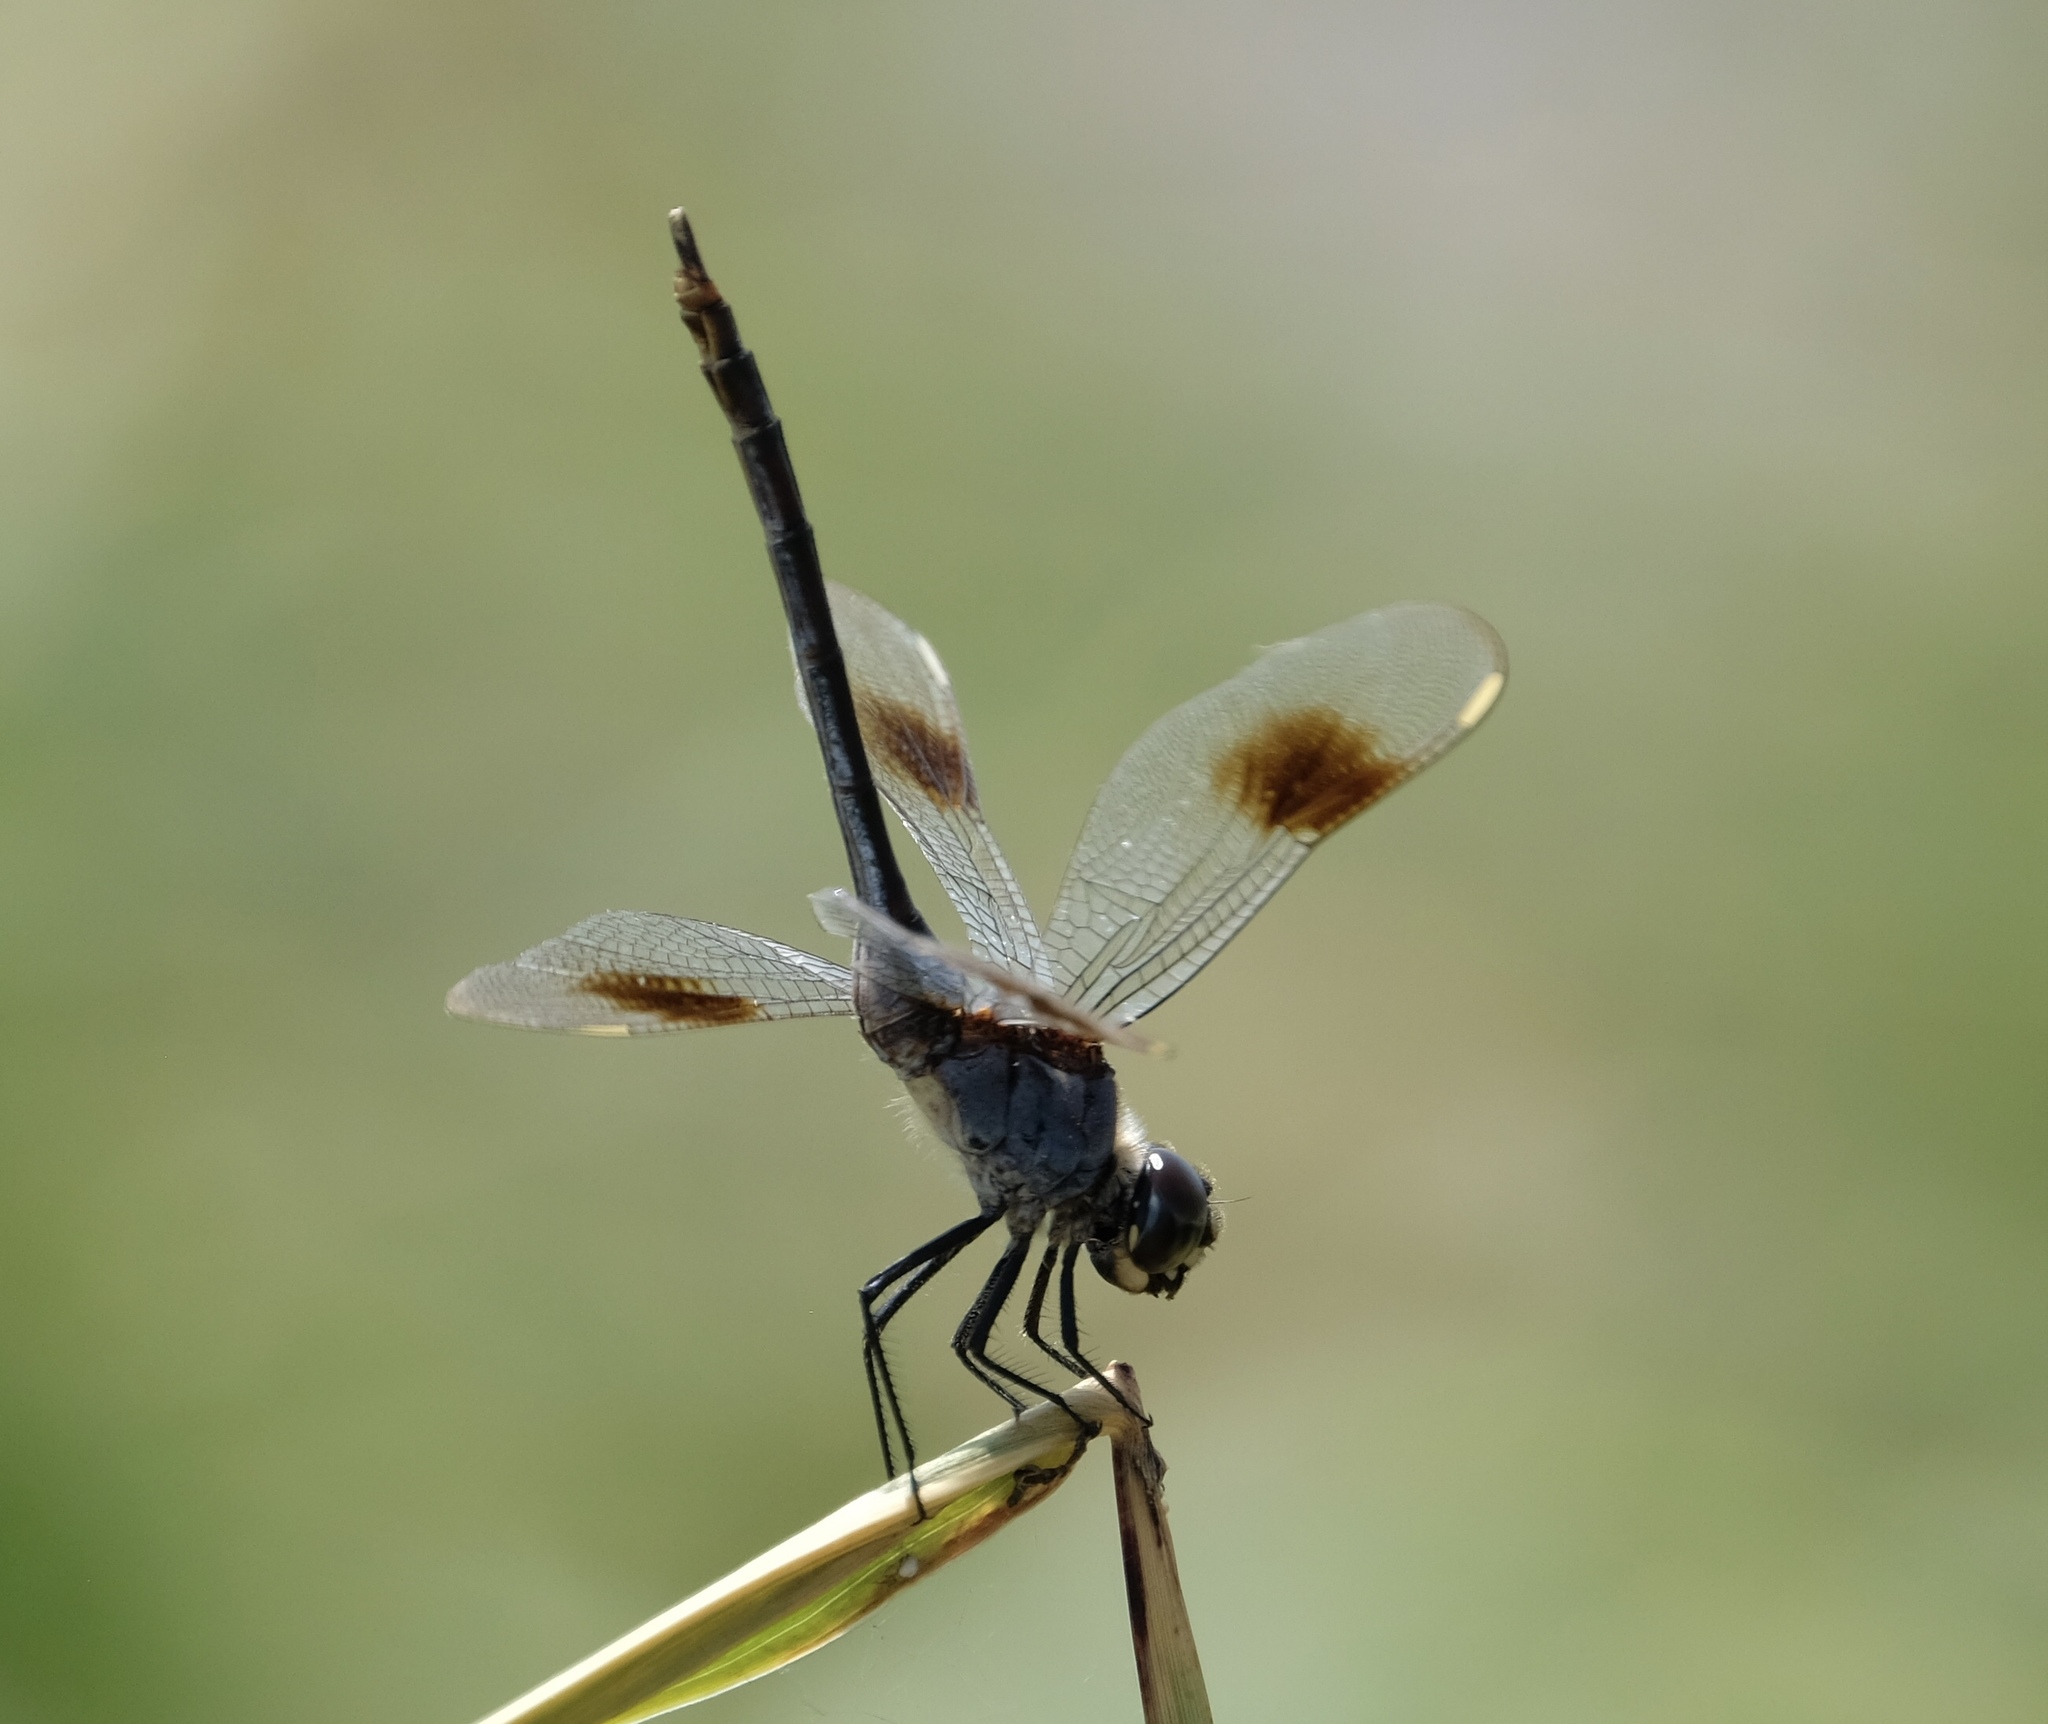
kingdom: Animalia
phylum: Arthropoda
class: Insecta
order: Odonata
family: Libellulidae
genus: Brachymesia
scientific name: Brachymesia gravida
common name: Four-spotted pennant
